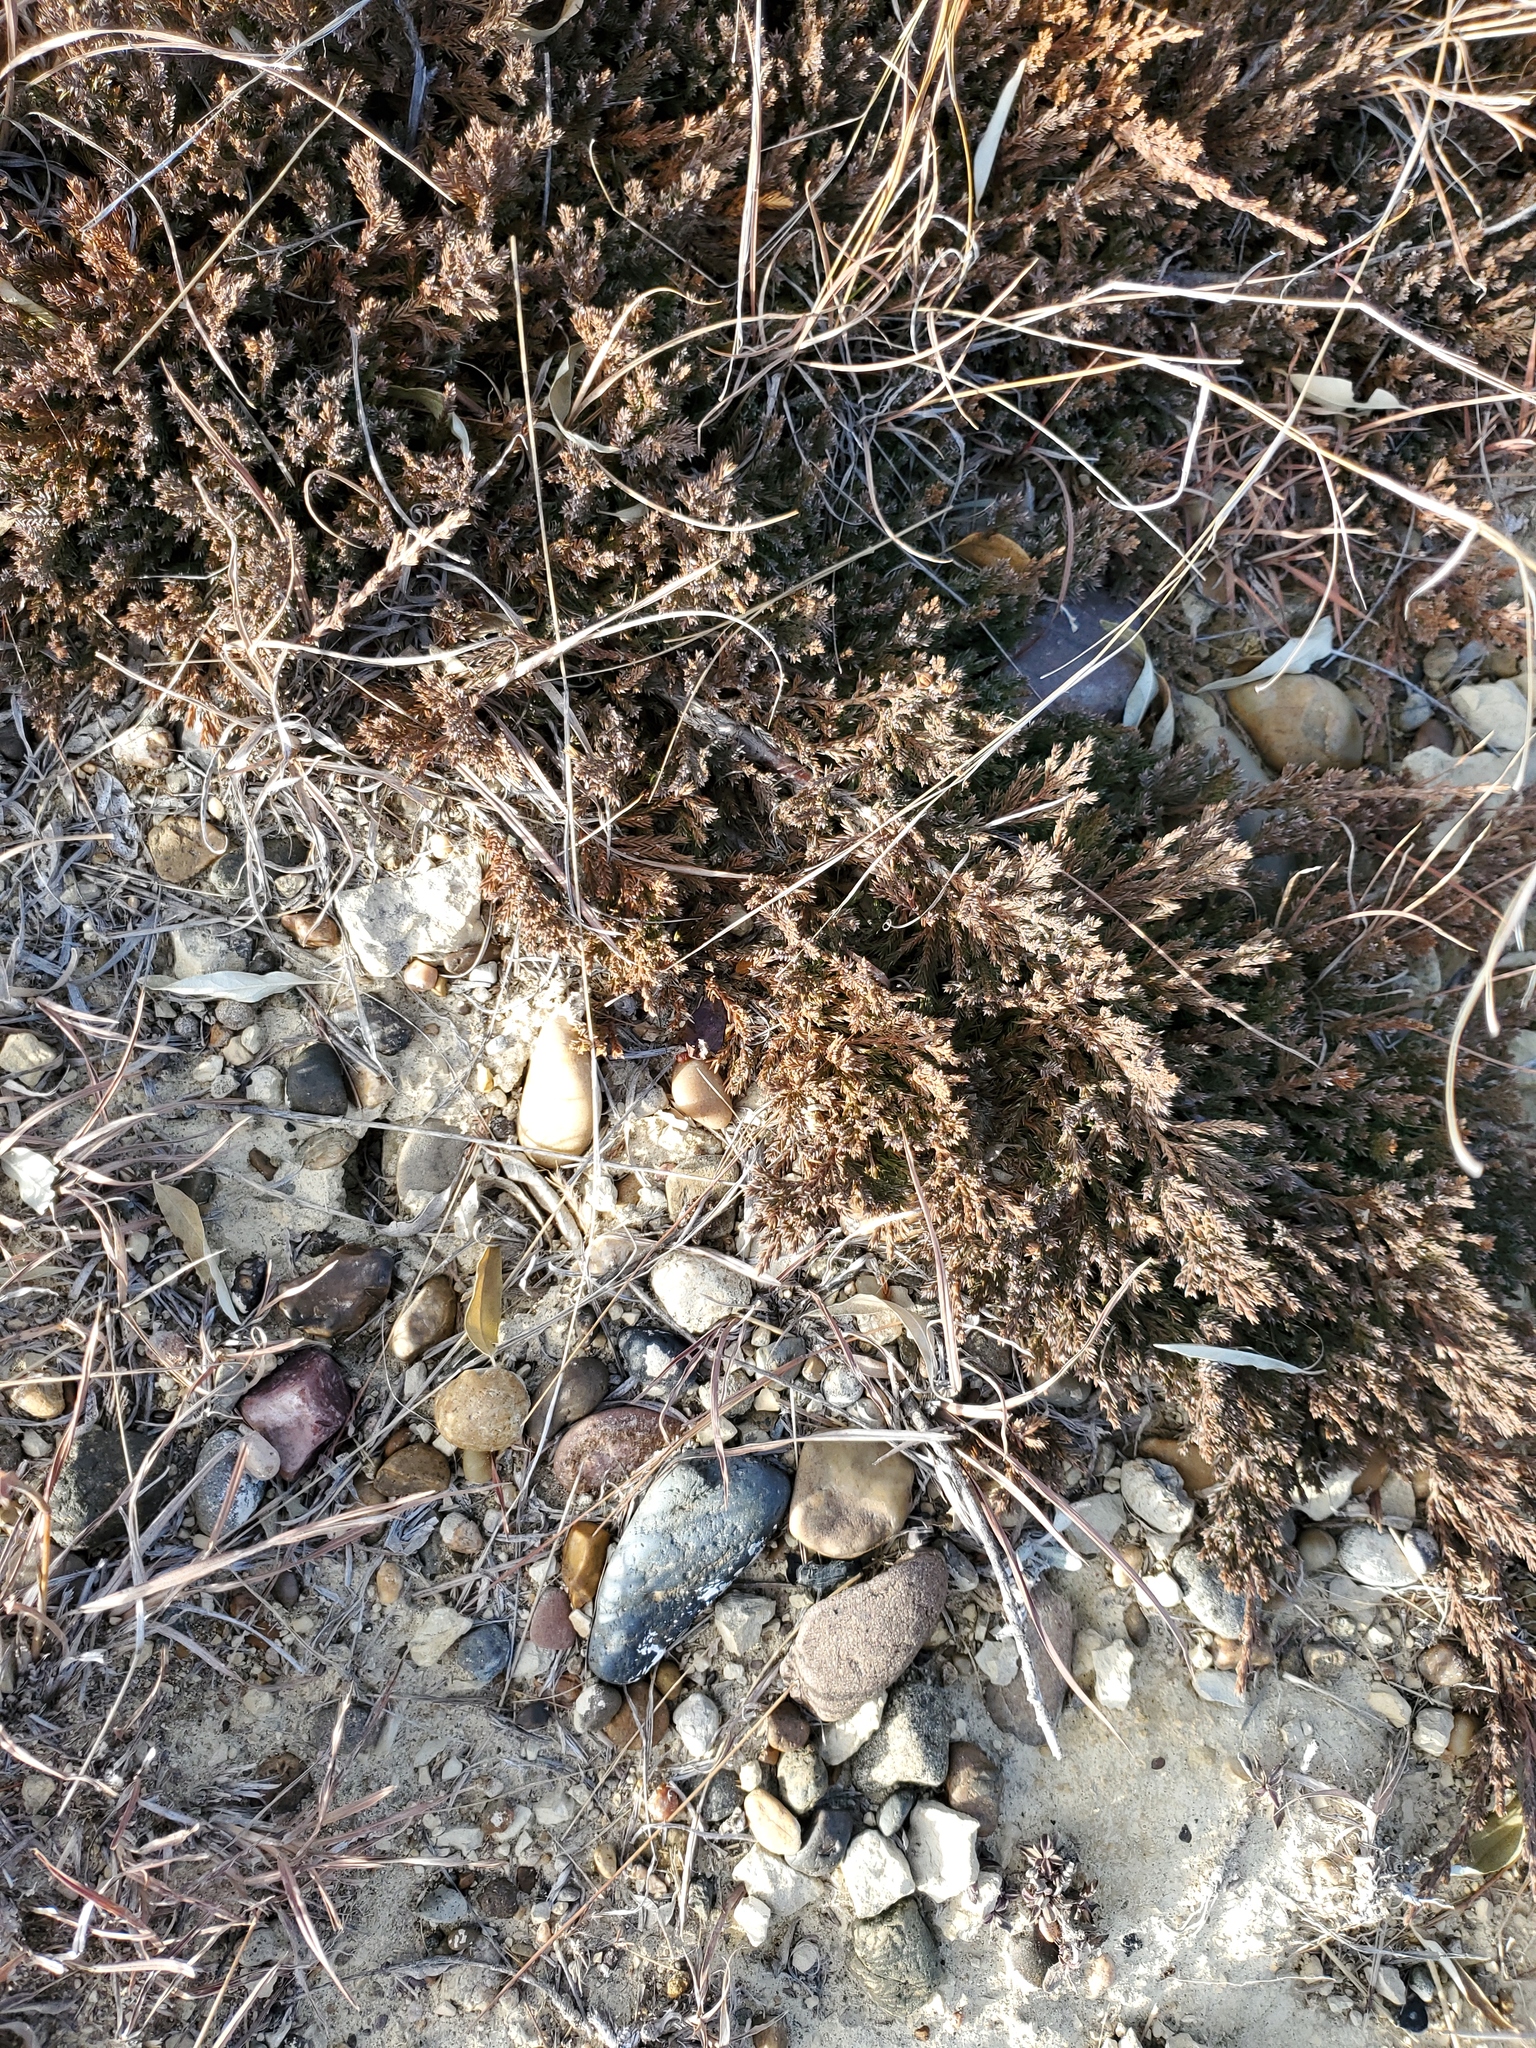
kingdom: Plantae
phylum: Tracheophyta
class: Pinopsida
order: Pinales
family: Cupressaceae
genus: Juniperus
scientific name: Juniperus horizontalis
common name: Creeping juniper
